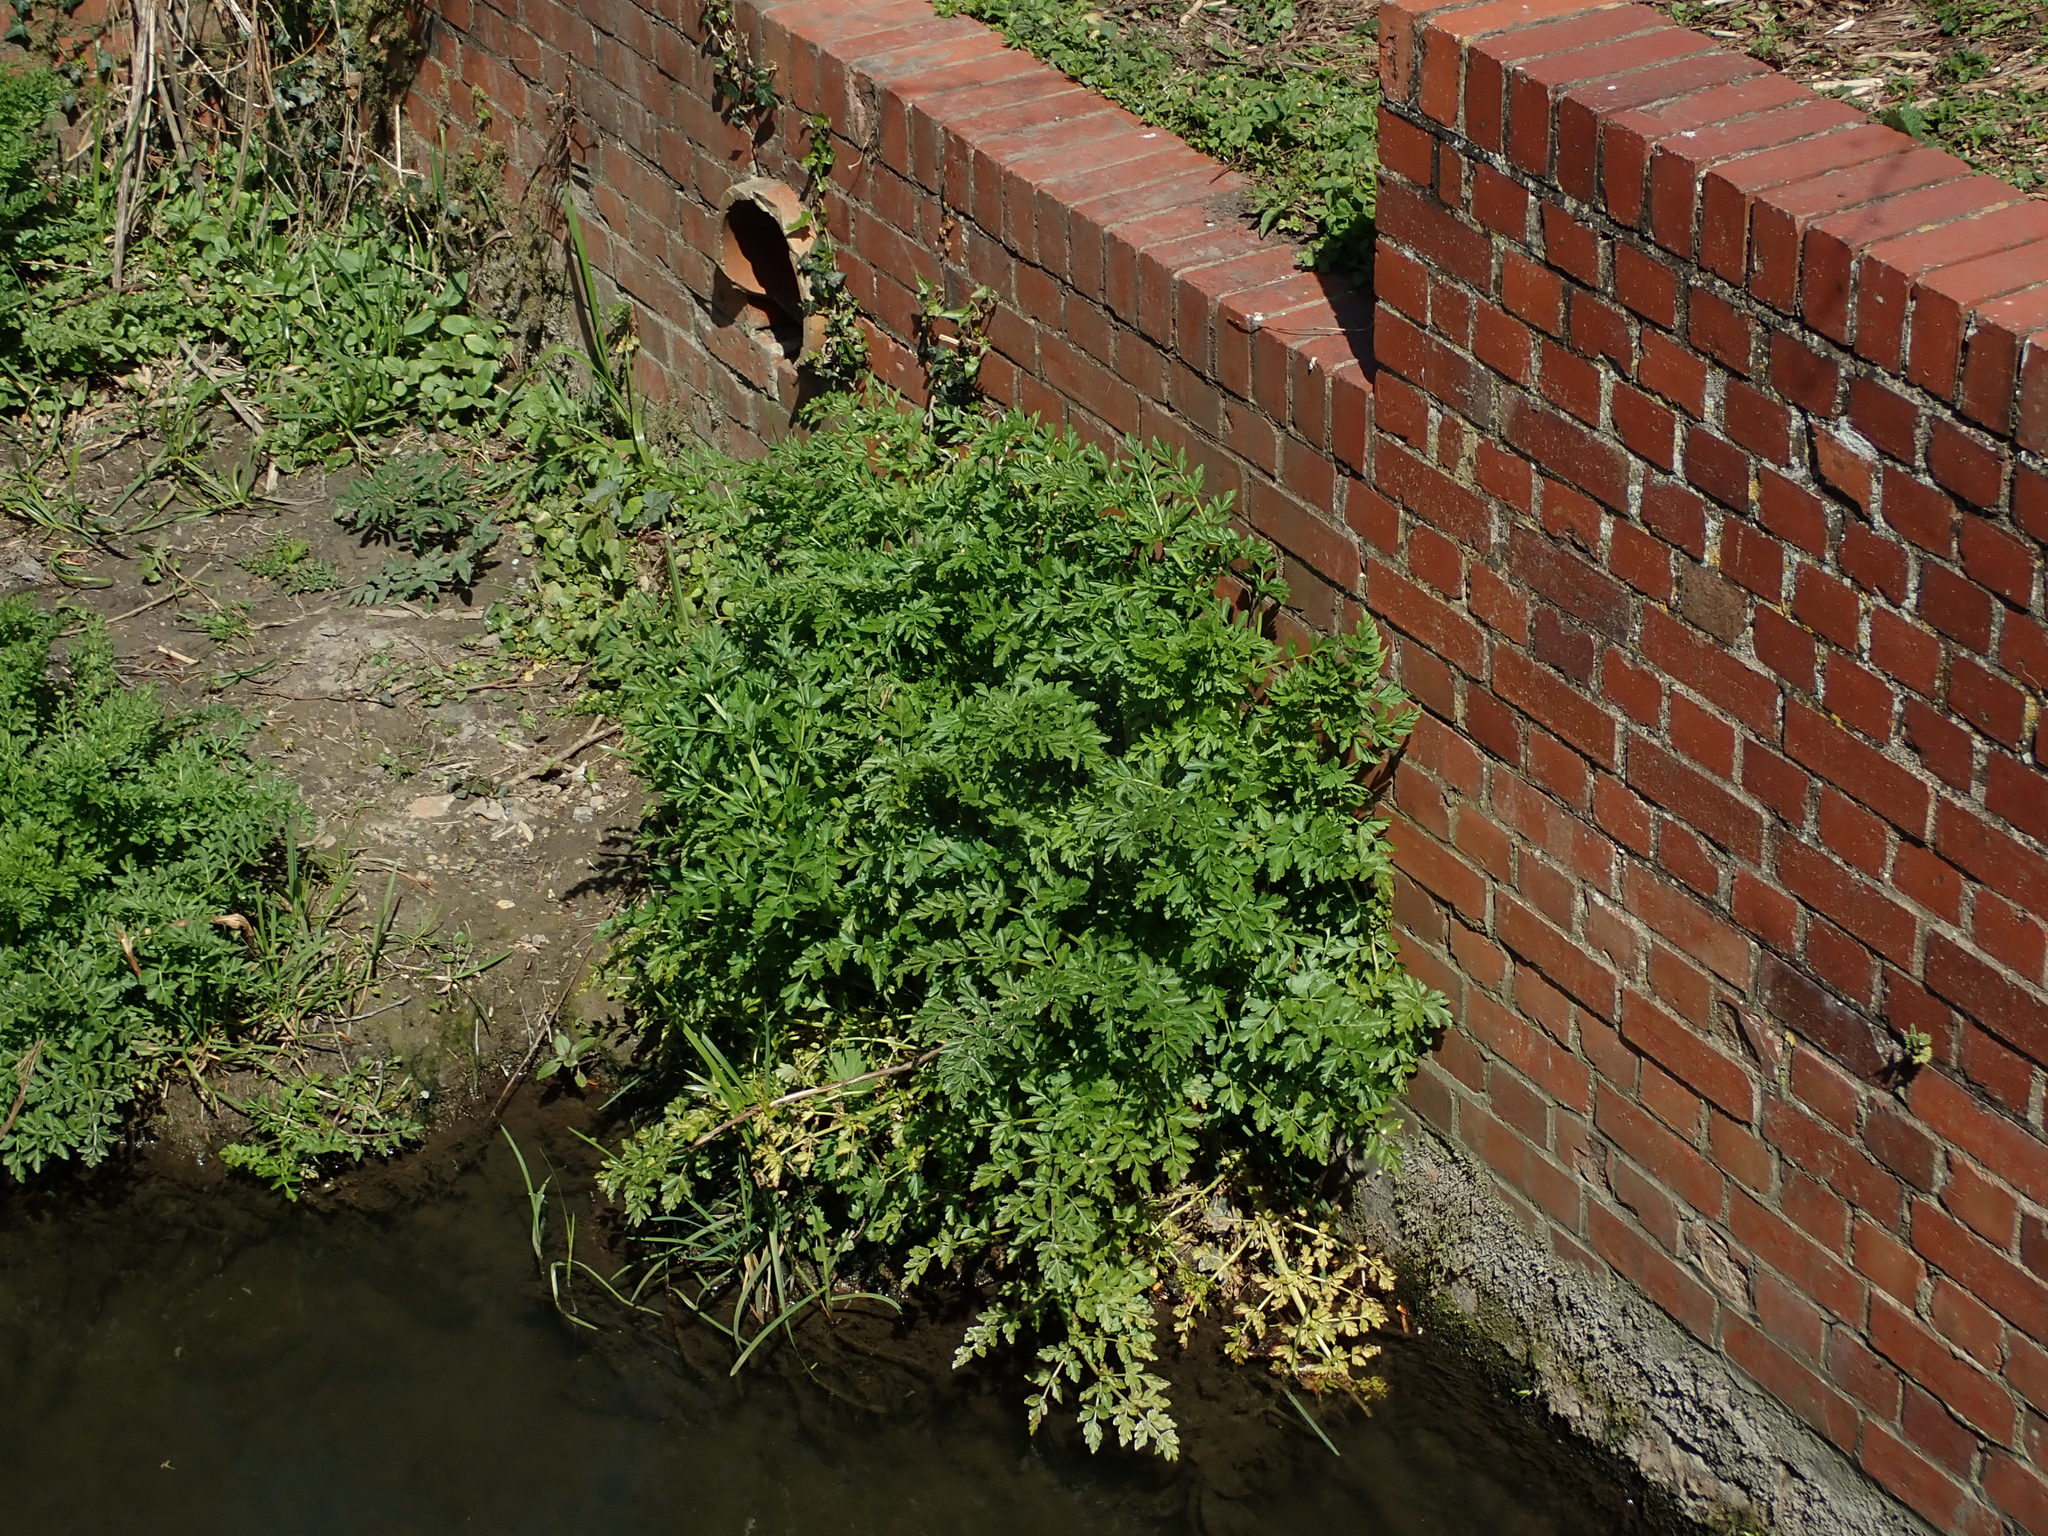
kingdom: Plantae
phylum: Tracheophyta
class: Magnoliopsida
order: Apiales
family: Apiaceae
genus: Oenanthe
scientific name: Oenanthe crocata
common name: Hemlock water-dropwort
